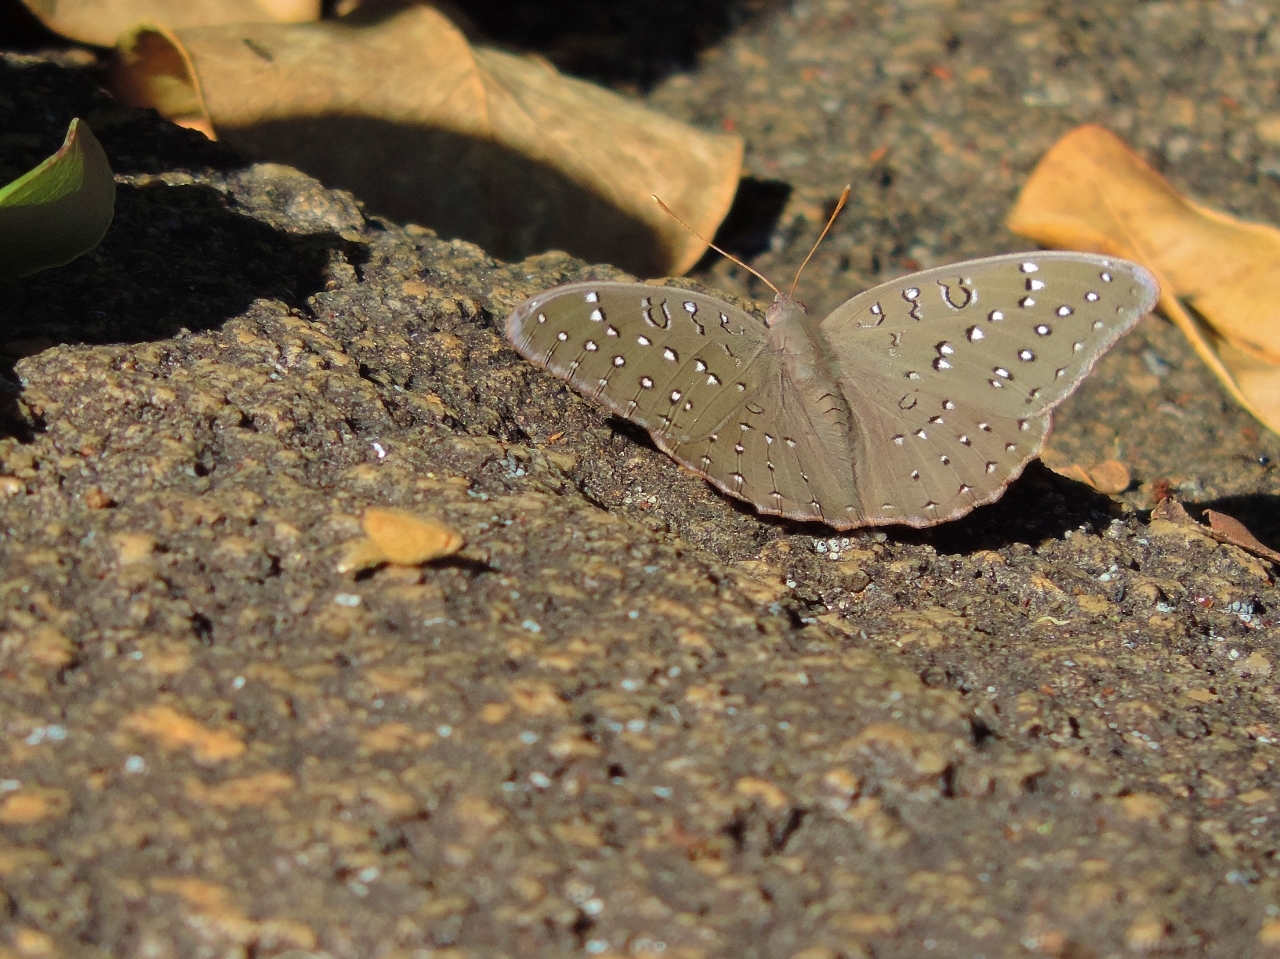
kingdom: Animalia
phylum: Arthropoda
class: Insecta
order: Lepidoptera
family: Nymphalidae
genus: Hamanumida
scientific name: Hamanumida daedalus
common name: Guinea-fowl butterfly
